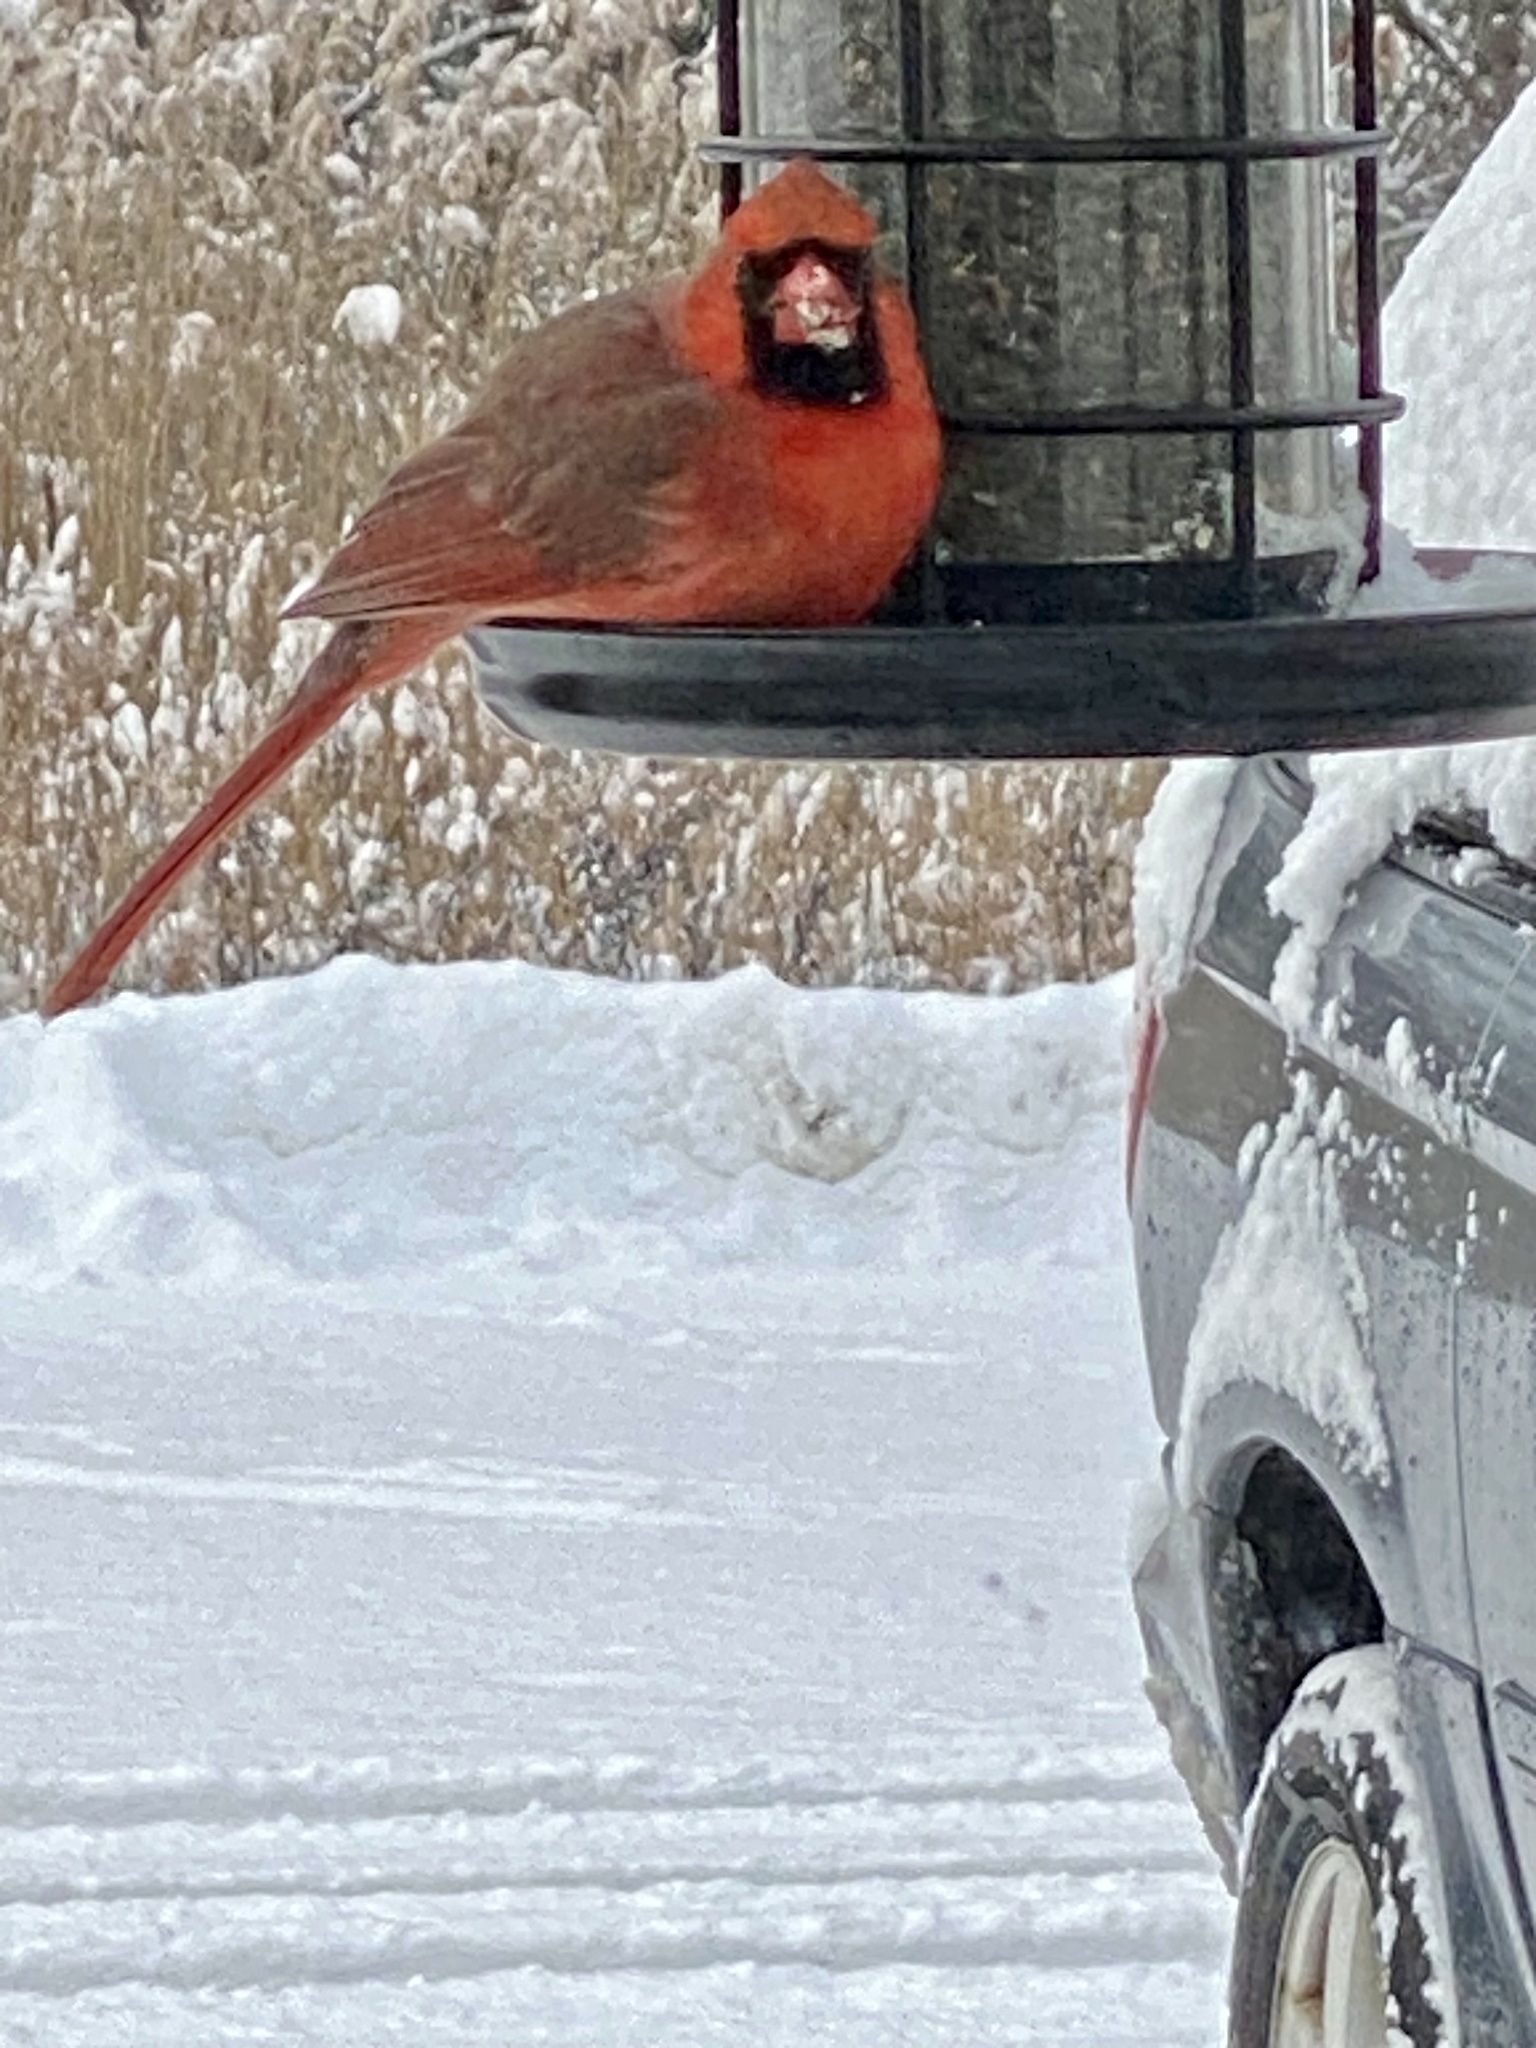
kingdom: Animalia
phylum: Chordata
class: Aves
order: Passeriformes
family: Cardinalidae
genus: Cardinalis
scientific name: Cardinalis cardinalis
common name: Northern cardinal
